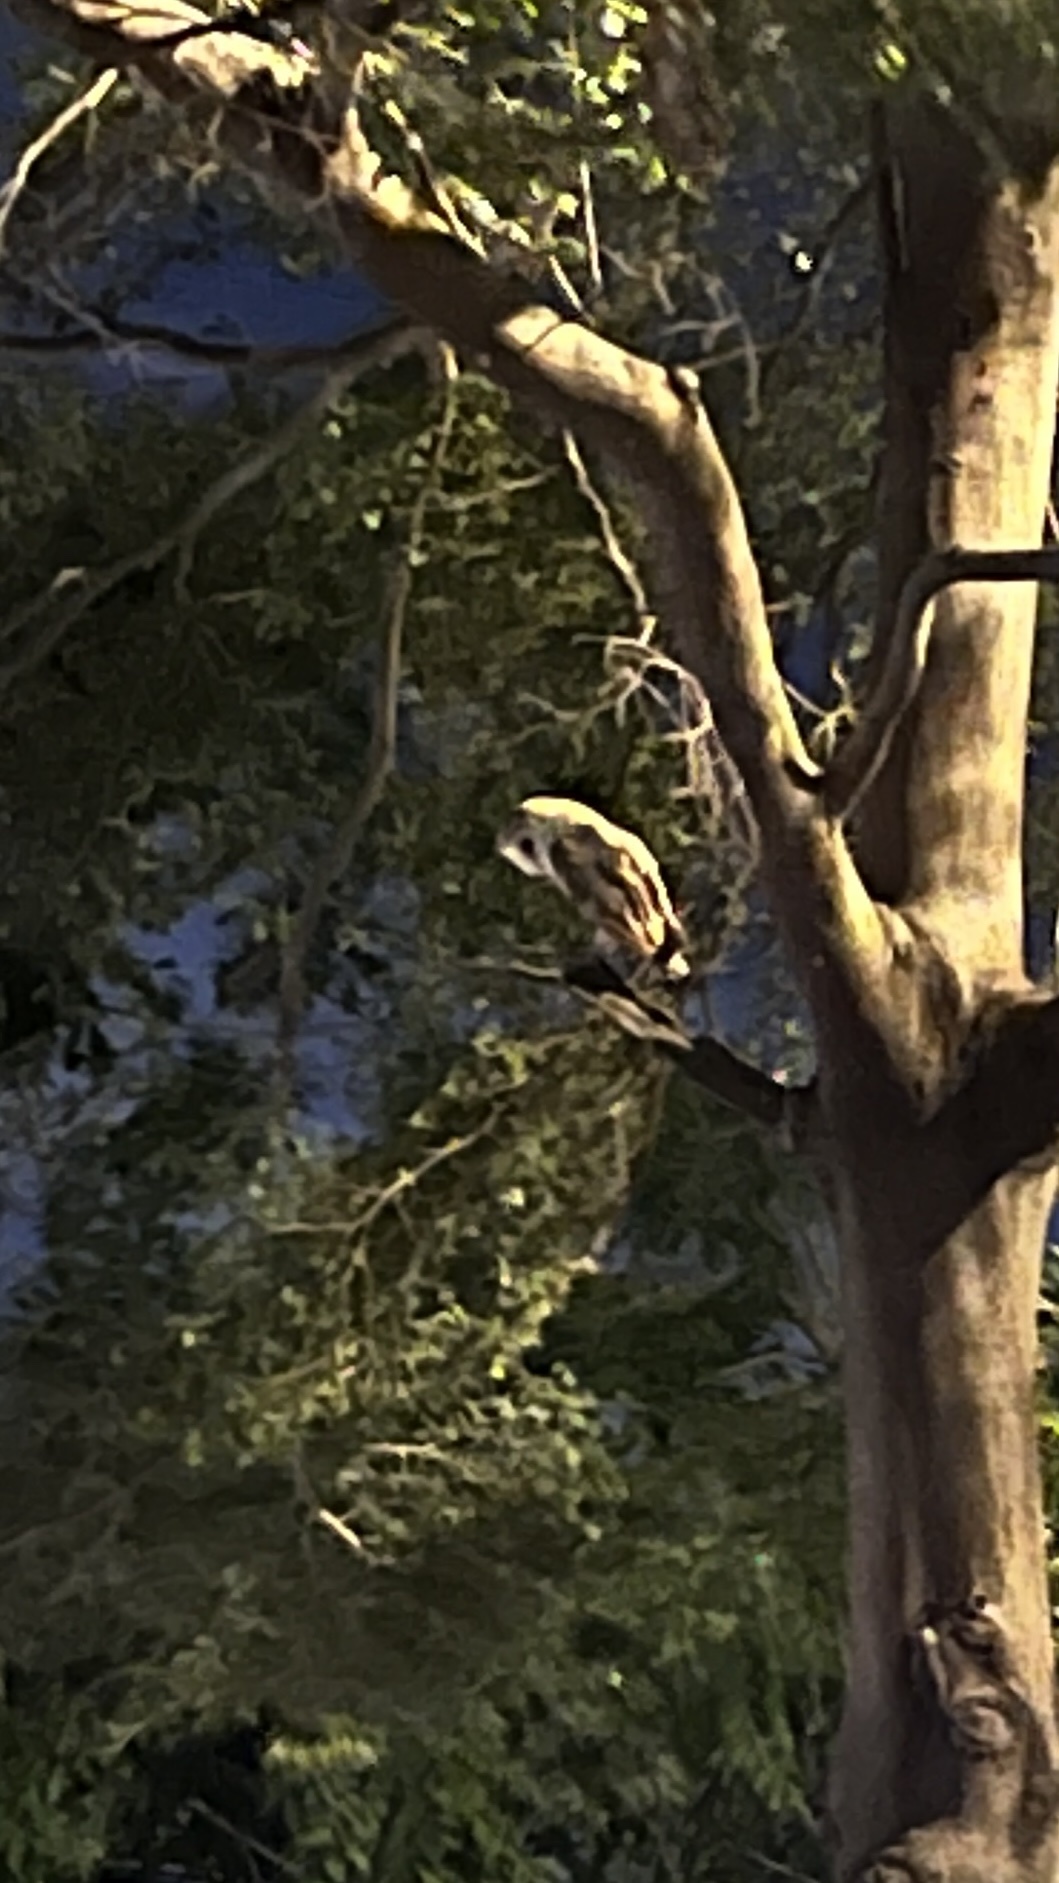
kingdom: Animalia
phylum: Chordata
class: Aves
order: Strigiformes
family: Tytonidae
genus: Tyto
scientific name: Tyto alba
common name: Barn owl
